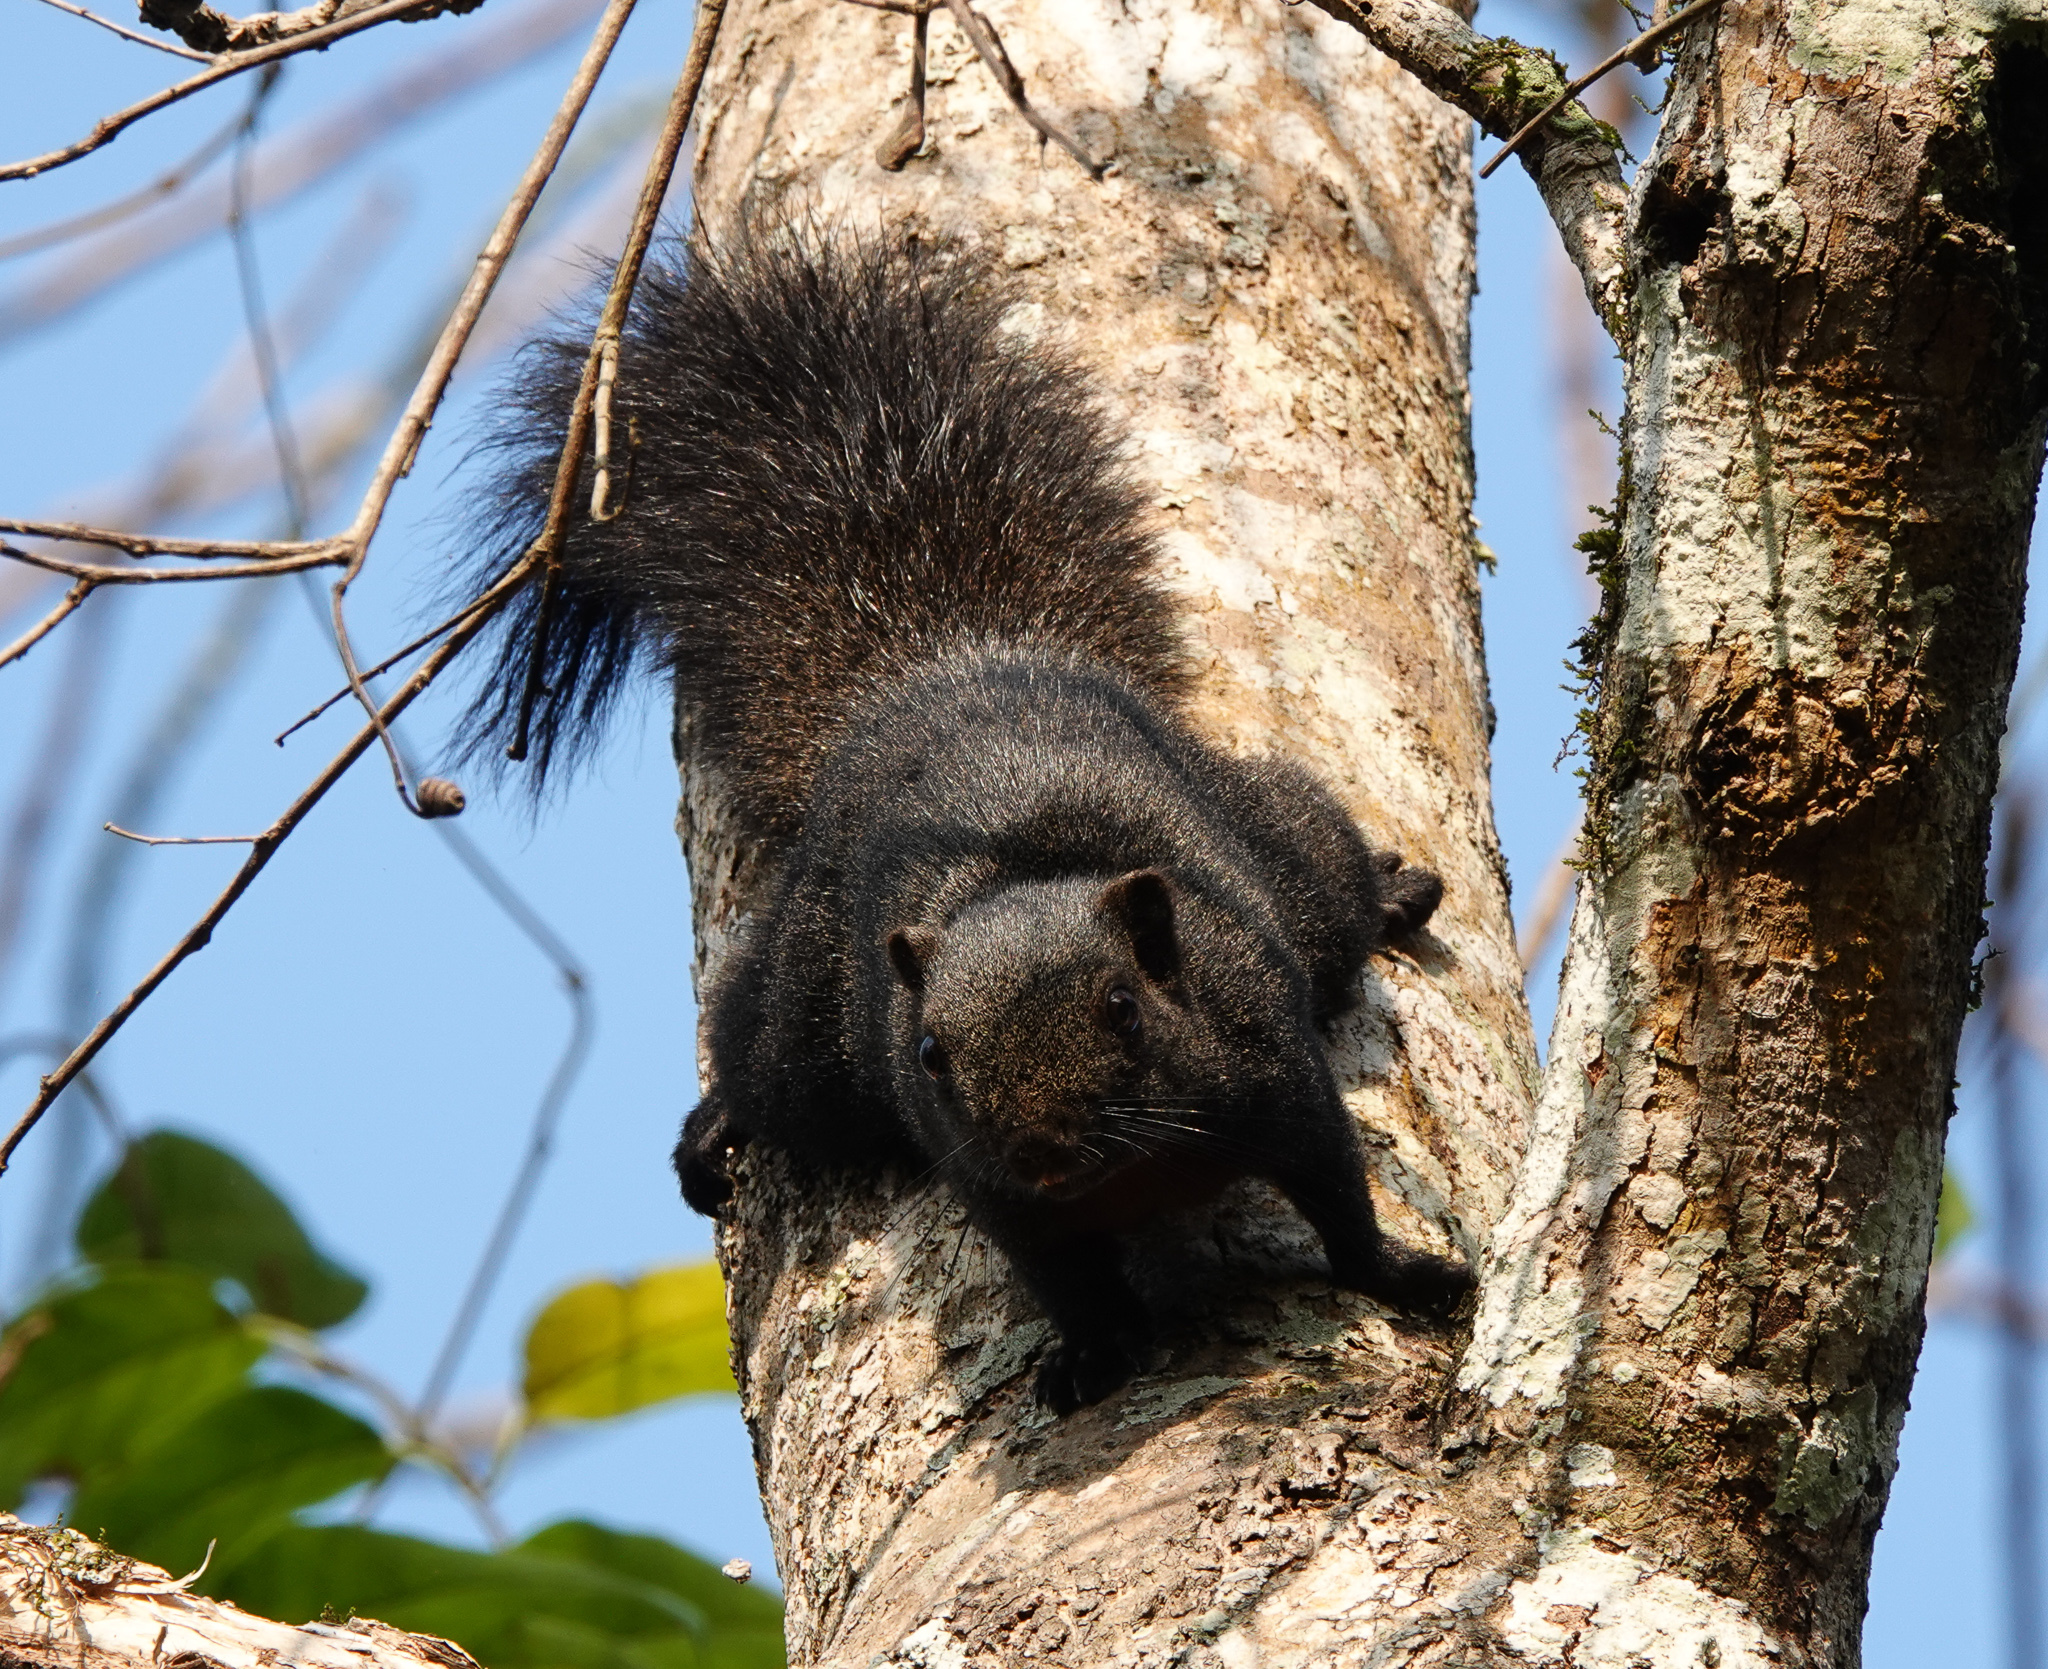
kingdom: Animalia
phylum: Chordata
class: Mammalia
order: Rodentia
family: Sciuridae
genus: Callosciurus
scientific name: Callosciurus erythraeus
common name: Pallas's squirrel
